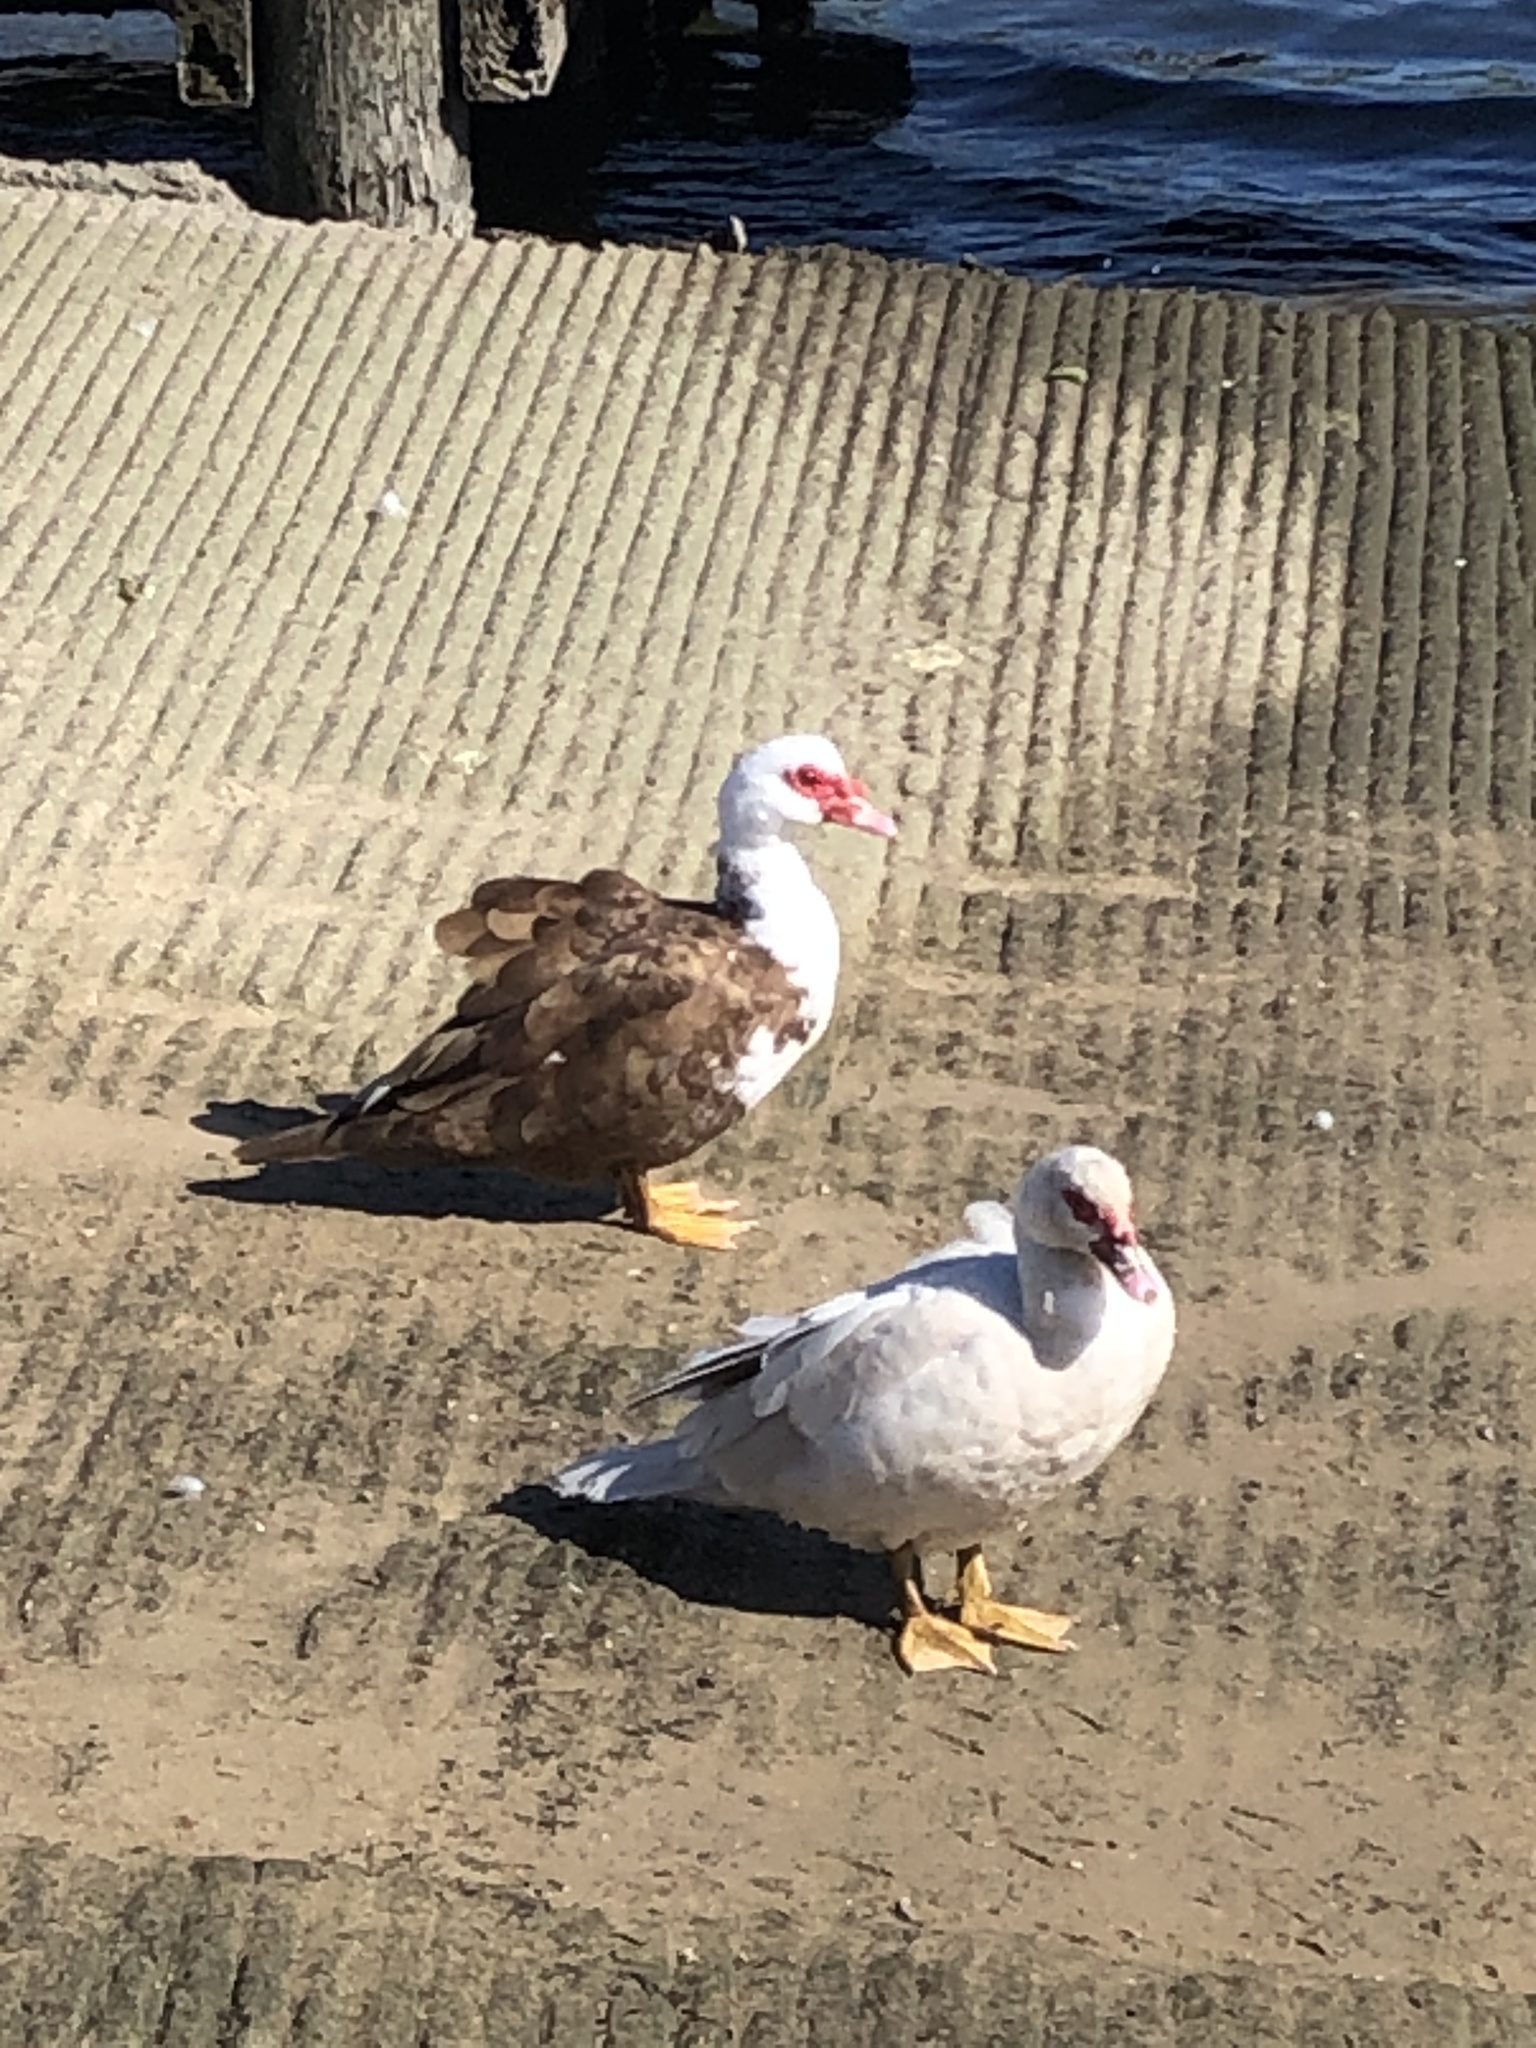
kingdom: Animalia
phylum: Chordata
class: Aves
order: Anseriformes
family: Anatidae
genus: Cairina
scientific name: Cairina moschata
